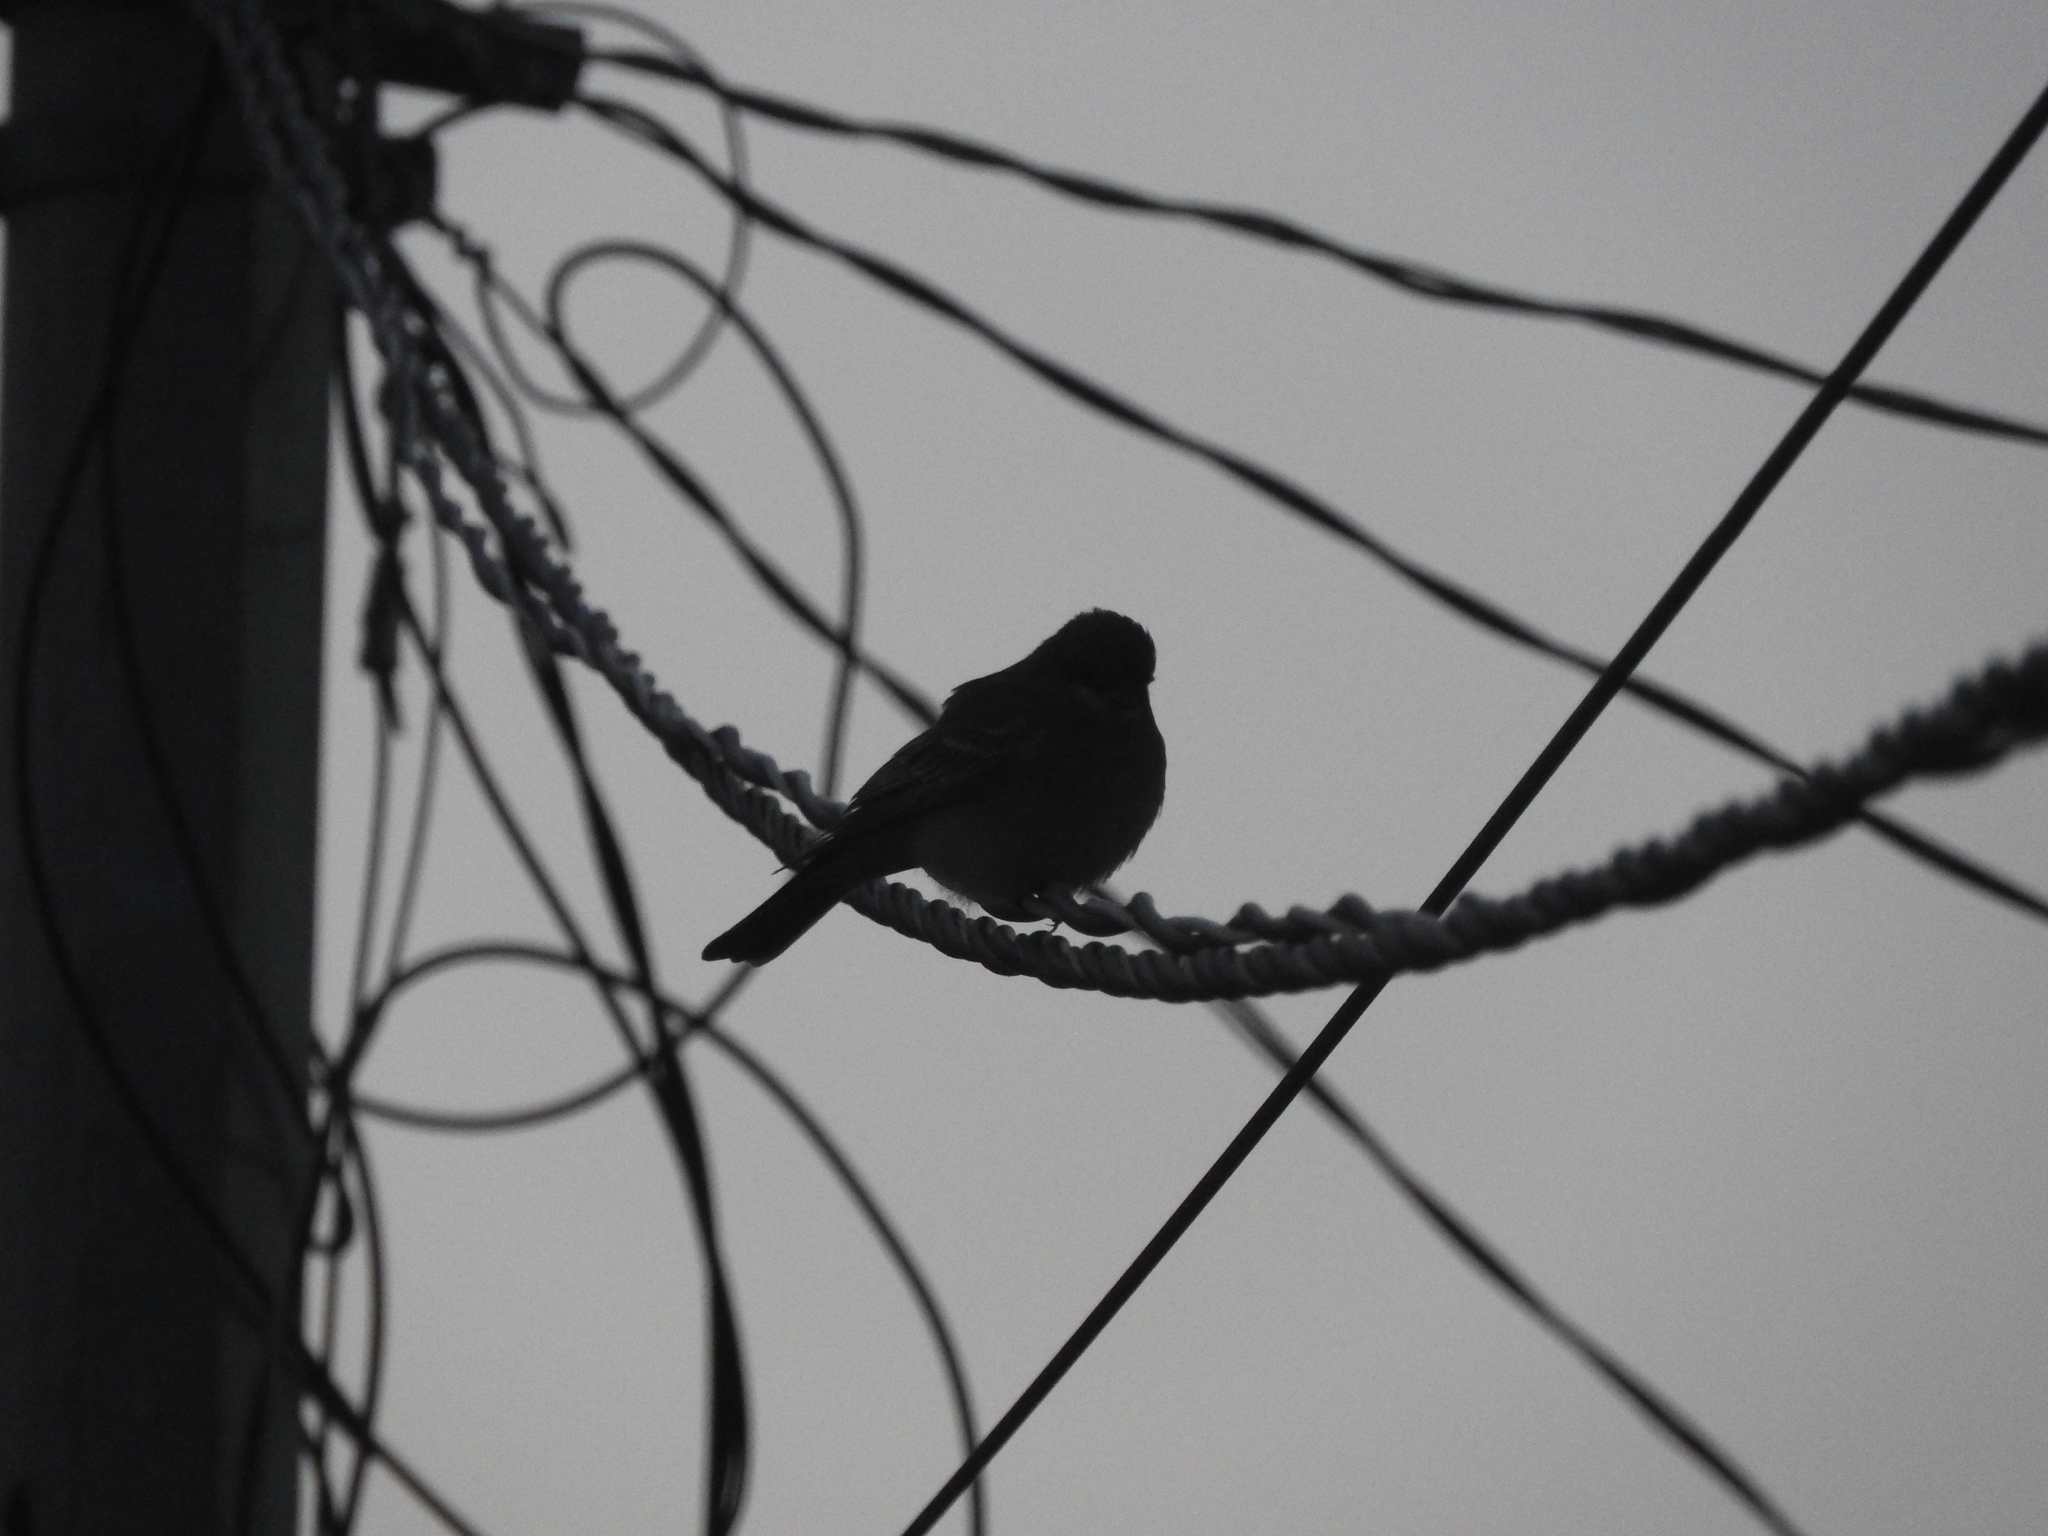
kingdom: Animalia
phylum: Chordata
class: Aves
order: Passeriformes
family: Tyrannidae
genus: Tyrannus
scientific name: Tyrannus vociferans
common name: Cassin's kingbird
